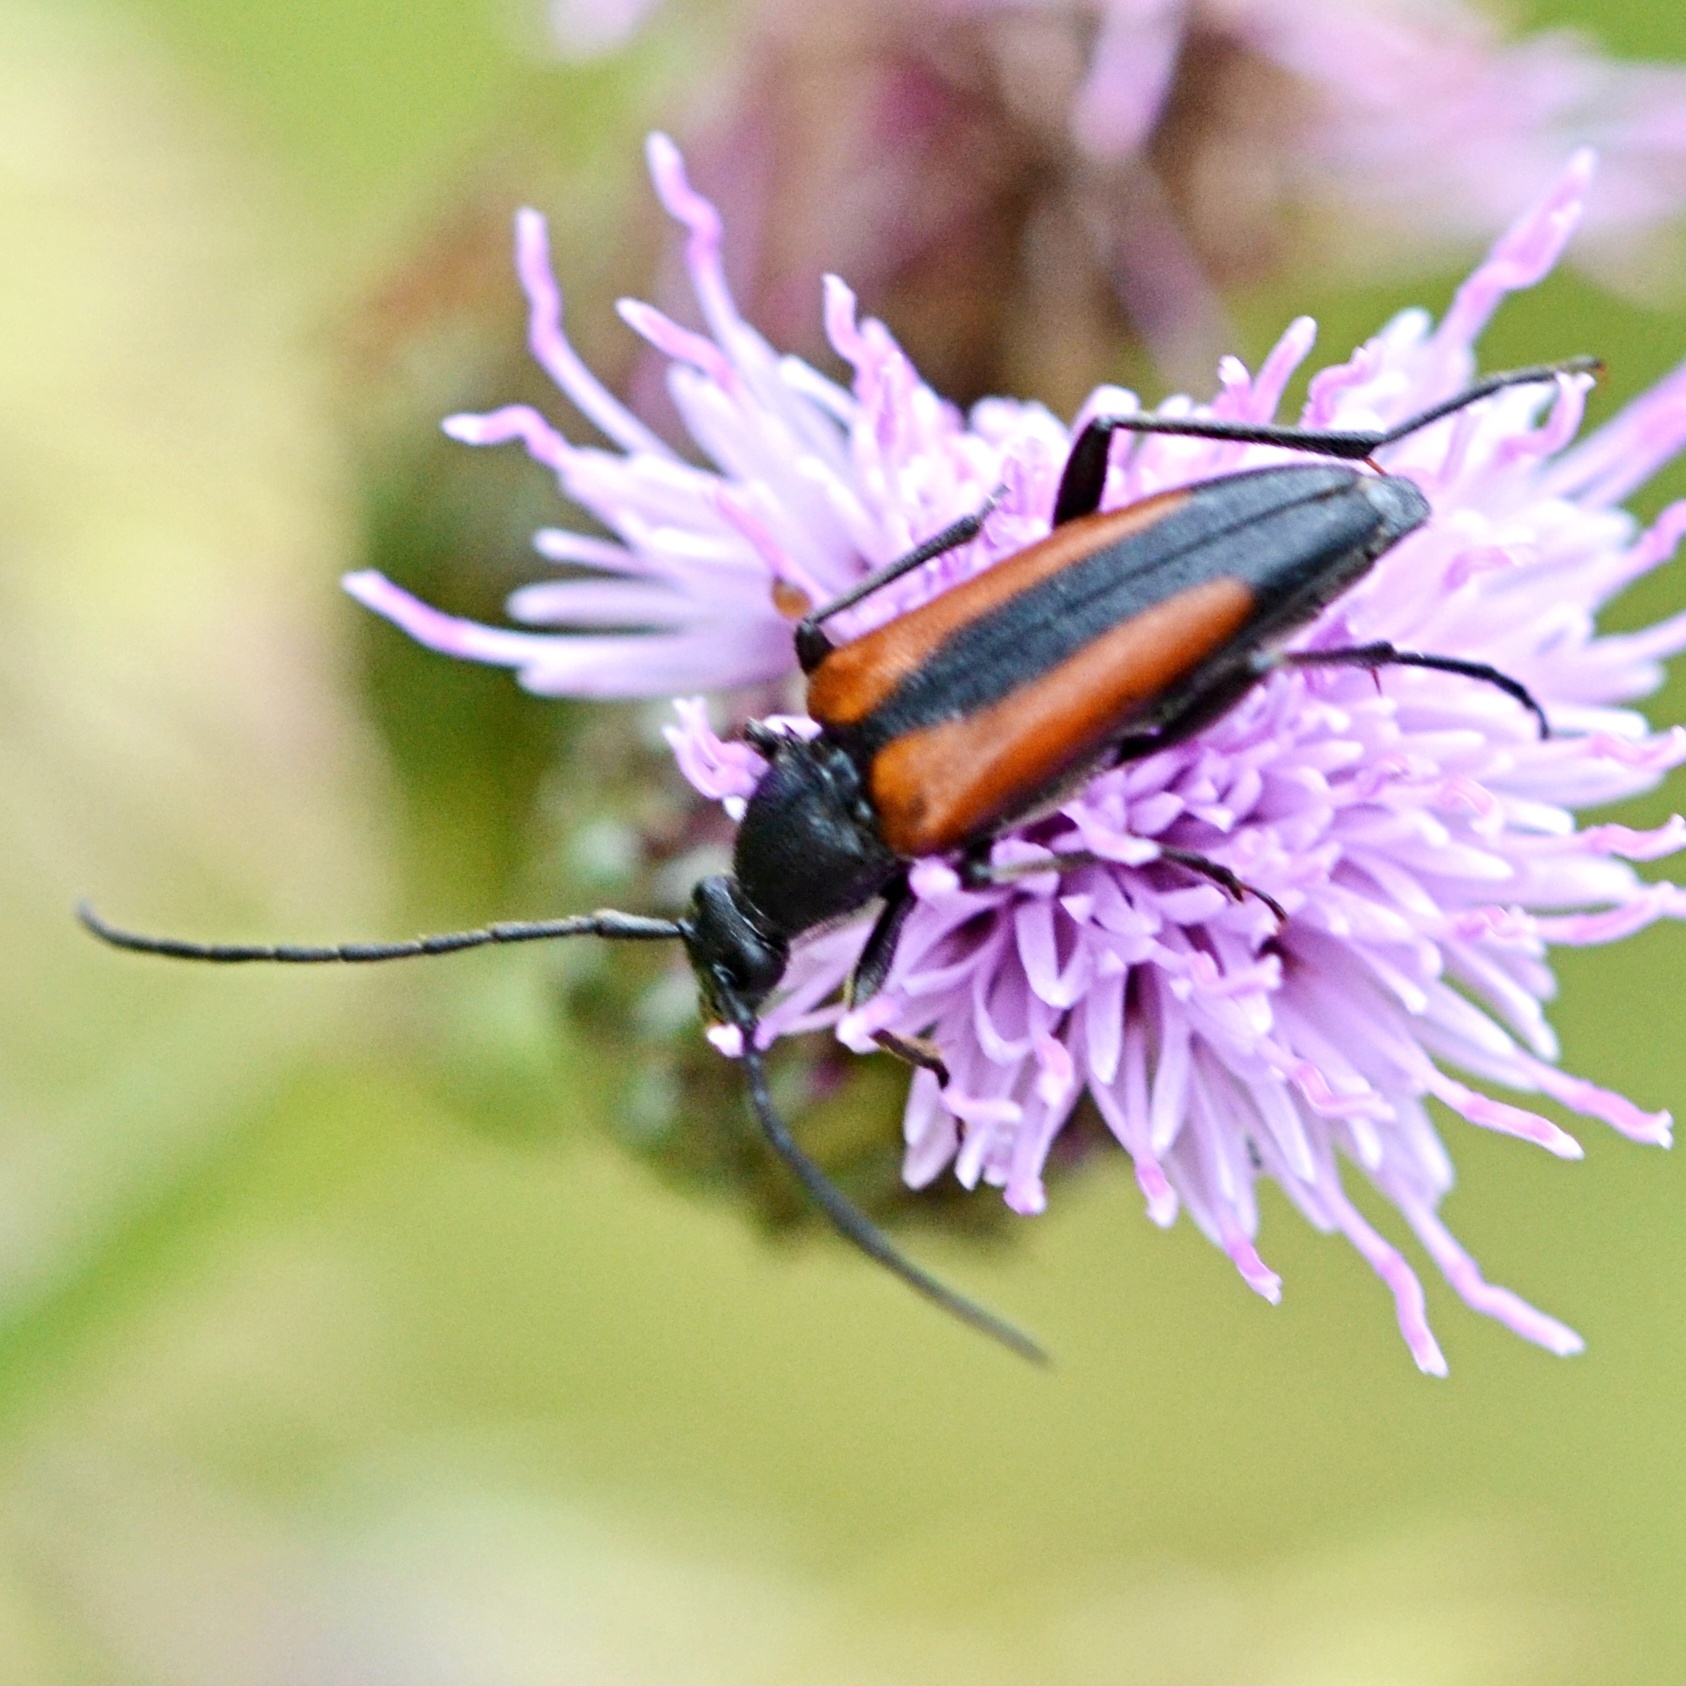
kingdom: Animalia
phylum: Arthropoda
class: Insecta
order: Coleoptera
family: Cerambycidae
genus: Stenurella
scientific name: Stenurella melanura
